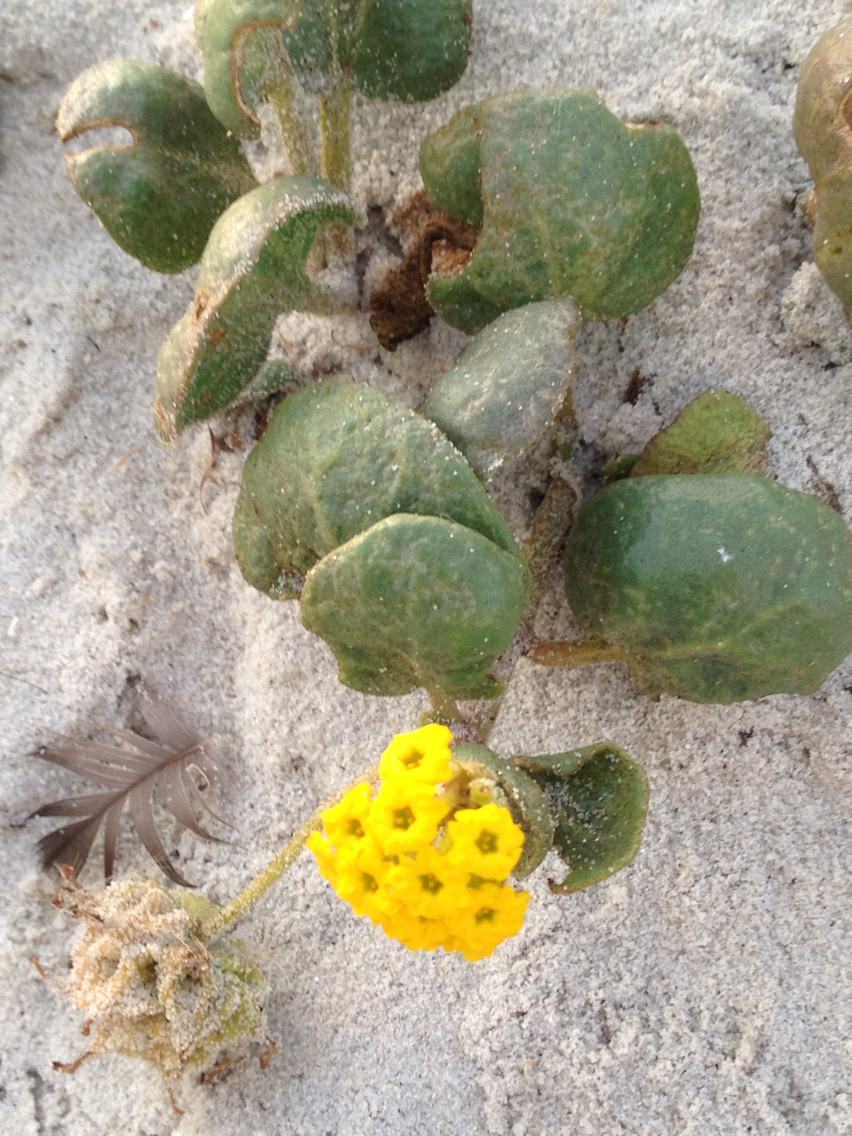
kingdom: Plantae
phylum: Tracheophyta
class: Magnoliopsida
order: Caryophyllales
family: Nyctaginaceae
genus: Abronia
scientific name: Abronia latifolia
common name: Yellow sand-verbena
